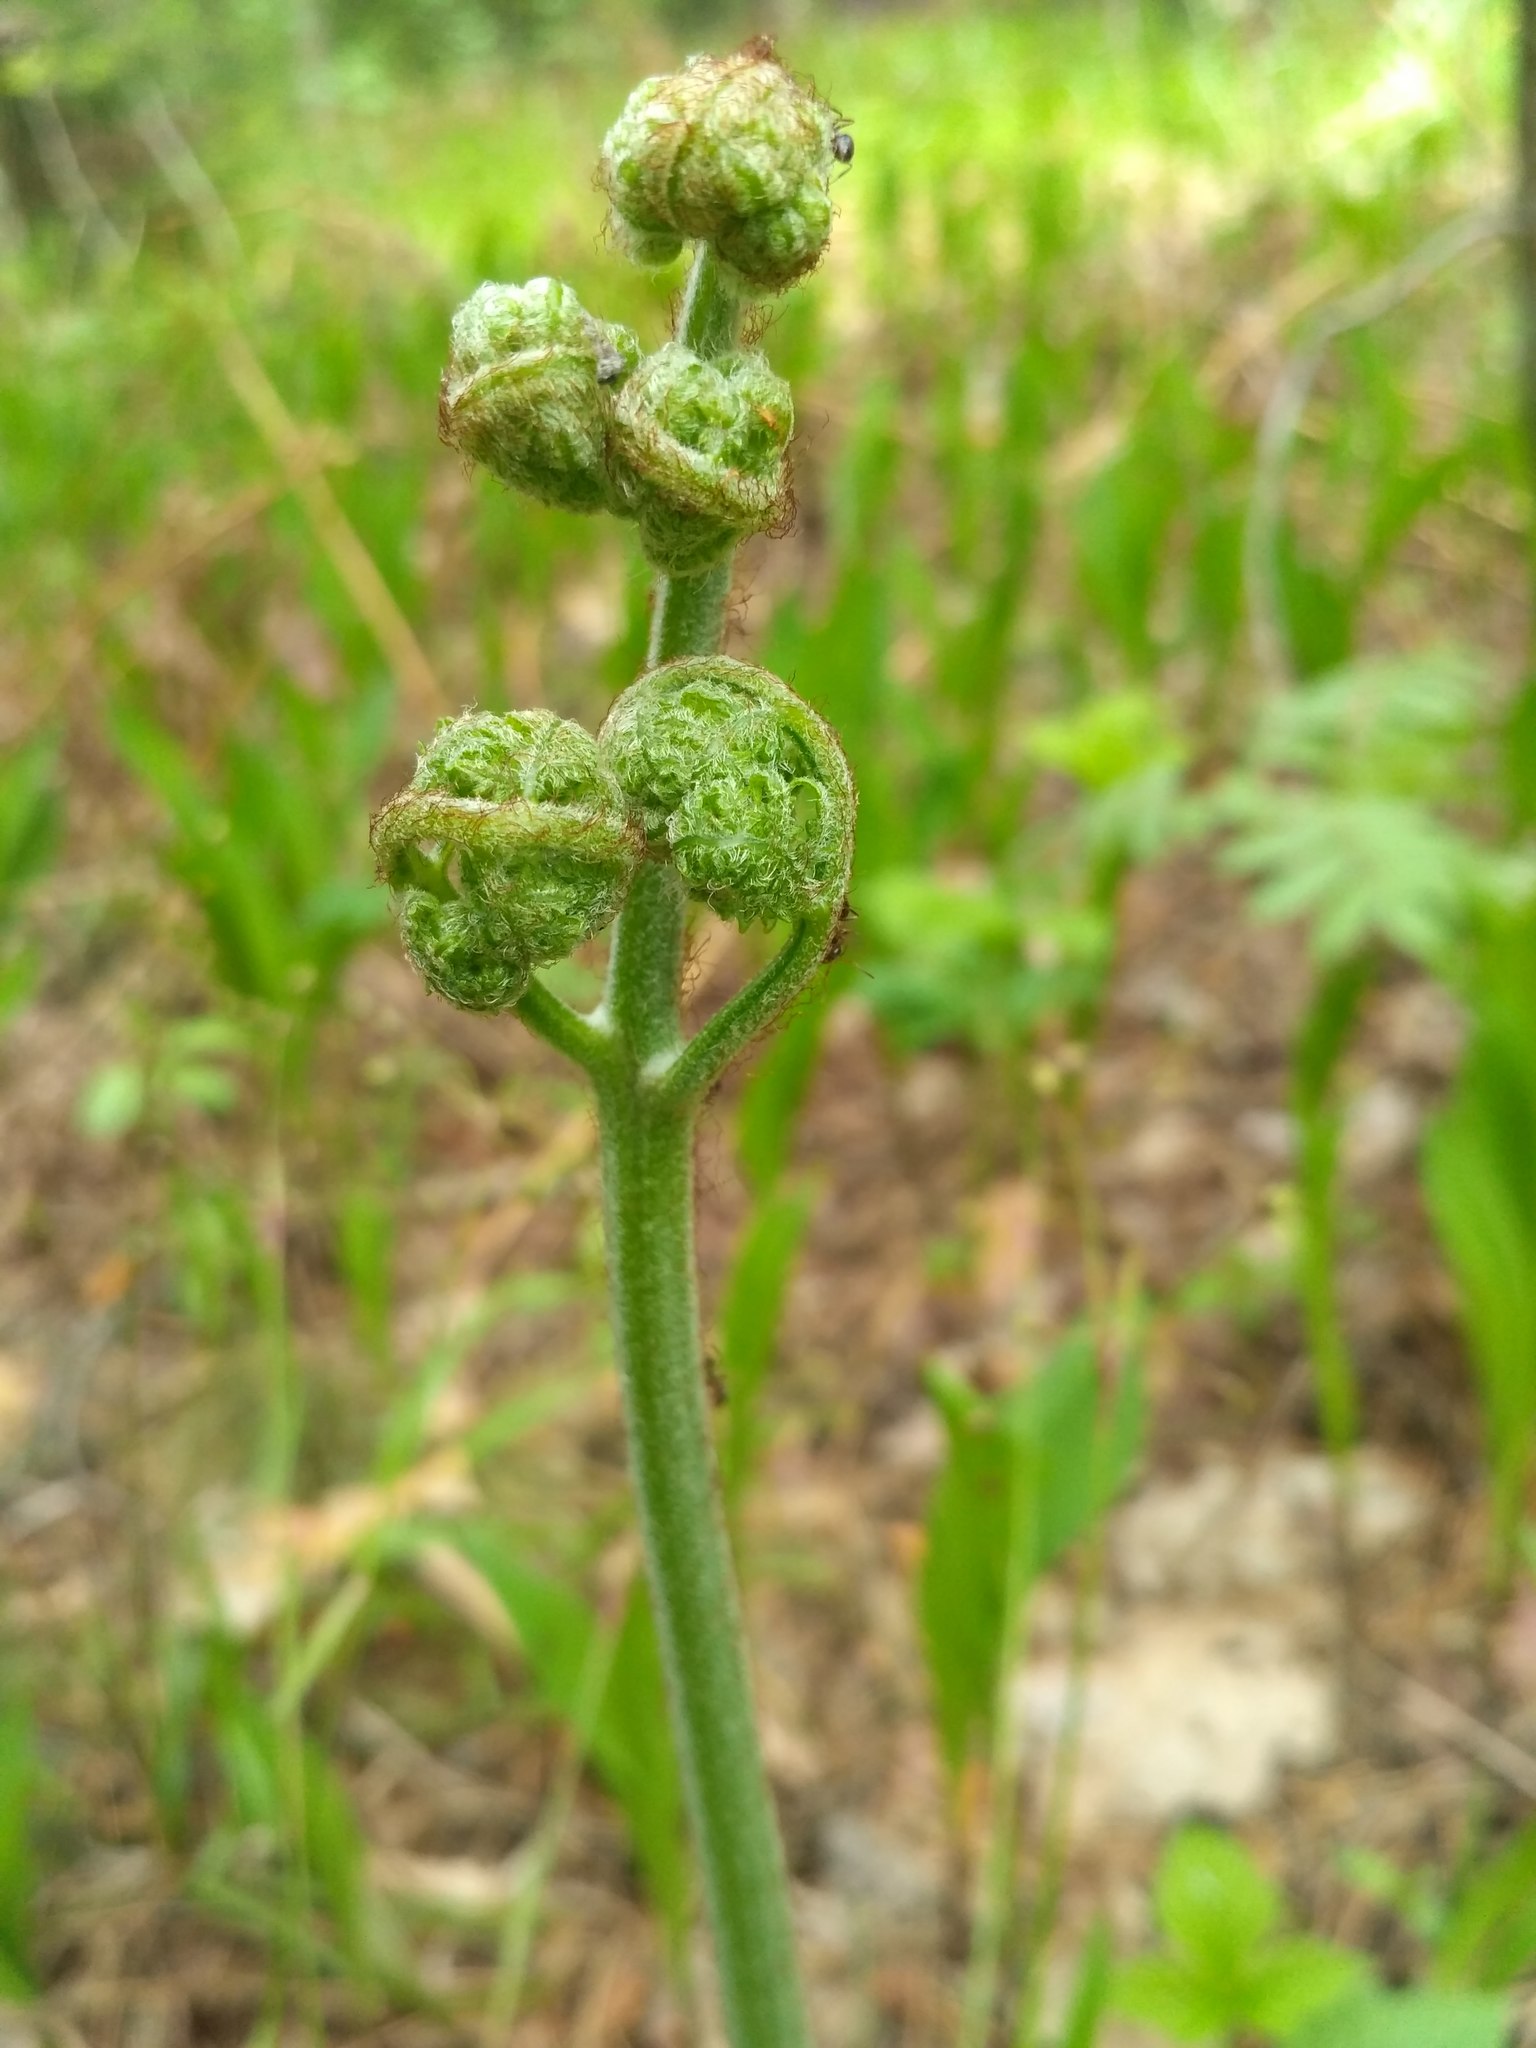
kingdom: Plantae
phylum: Tracheophyta
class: Polypodiopsida
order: Polypodiales
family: Dennstaedtiaceae
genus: Pteridium
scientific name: Pteridium aquilinum
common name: Bracken
